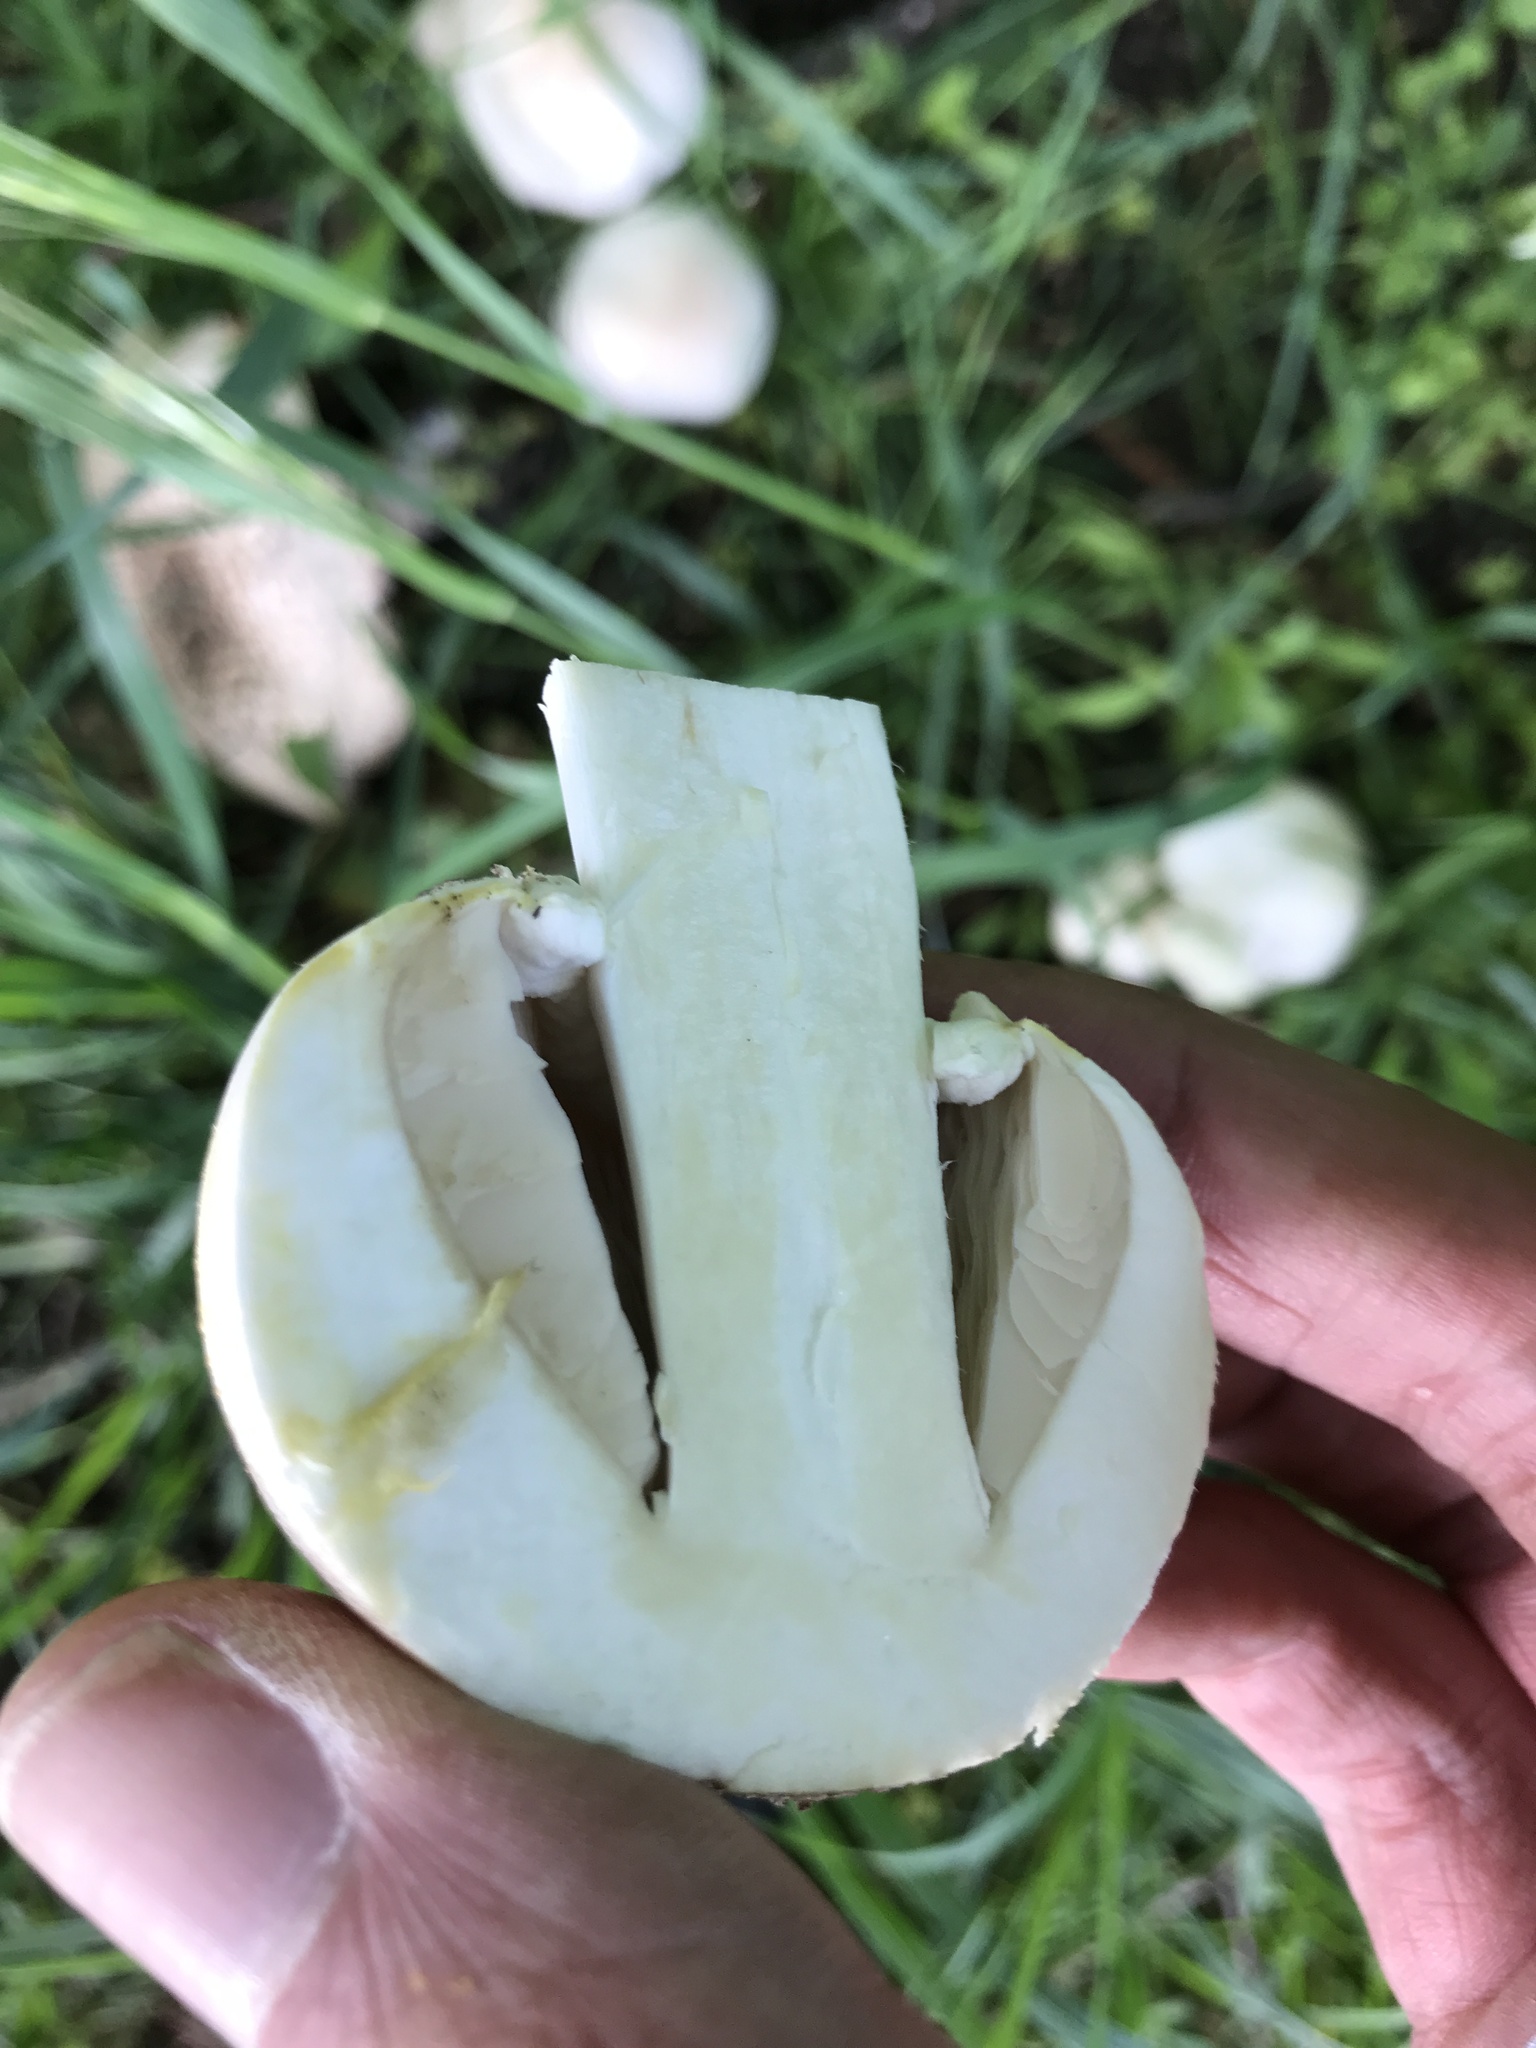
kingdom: Fungi
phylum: Basidiomycota
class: Agaricomycetes
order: Agaricales
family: Agaricaceae
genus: Agaricus
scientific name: Agaricus xanthodermus
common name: Yellow stainer
